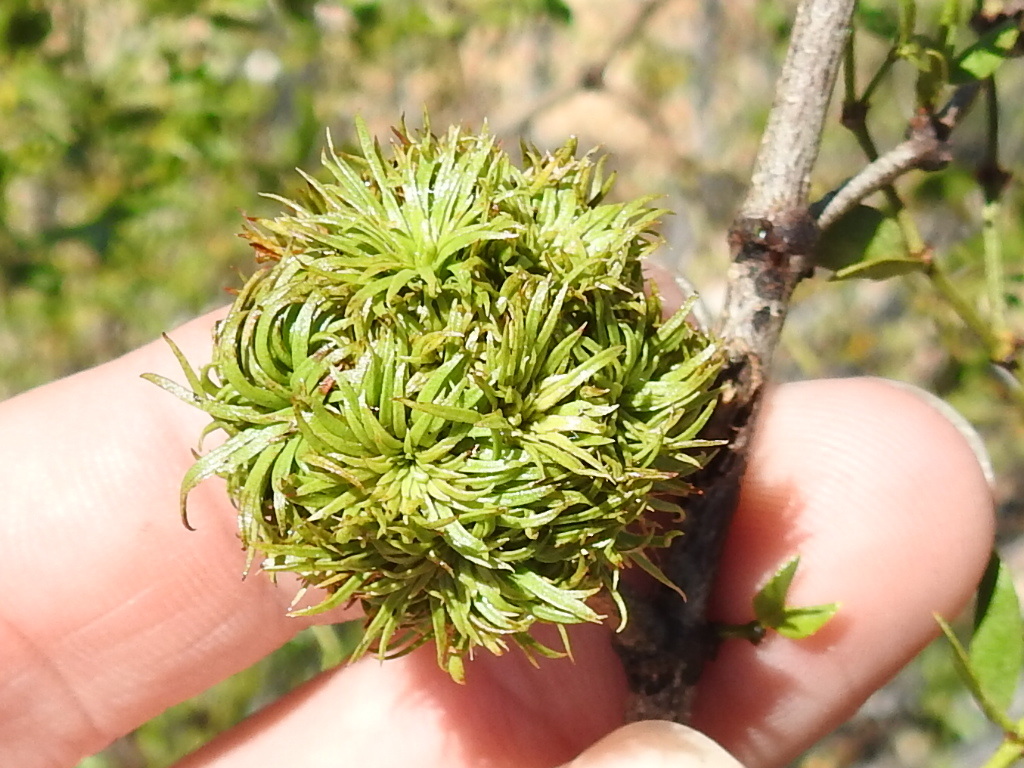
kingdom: Animalia
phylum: Arthropoda
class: Insecta
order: Diptera
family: Cecidomyiidae
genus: Asphondylia
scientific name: Asphondylia auripila
